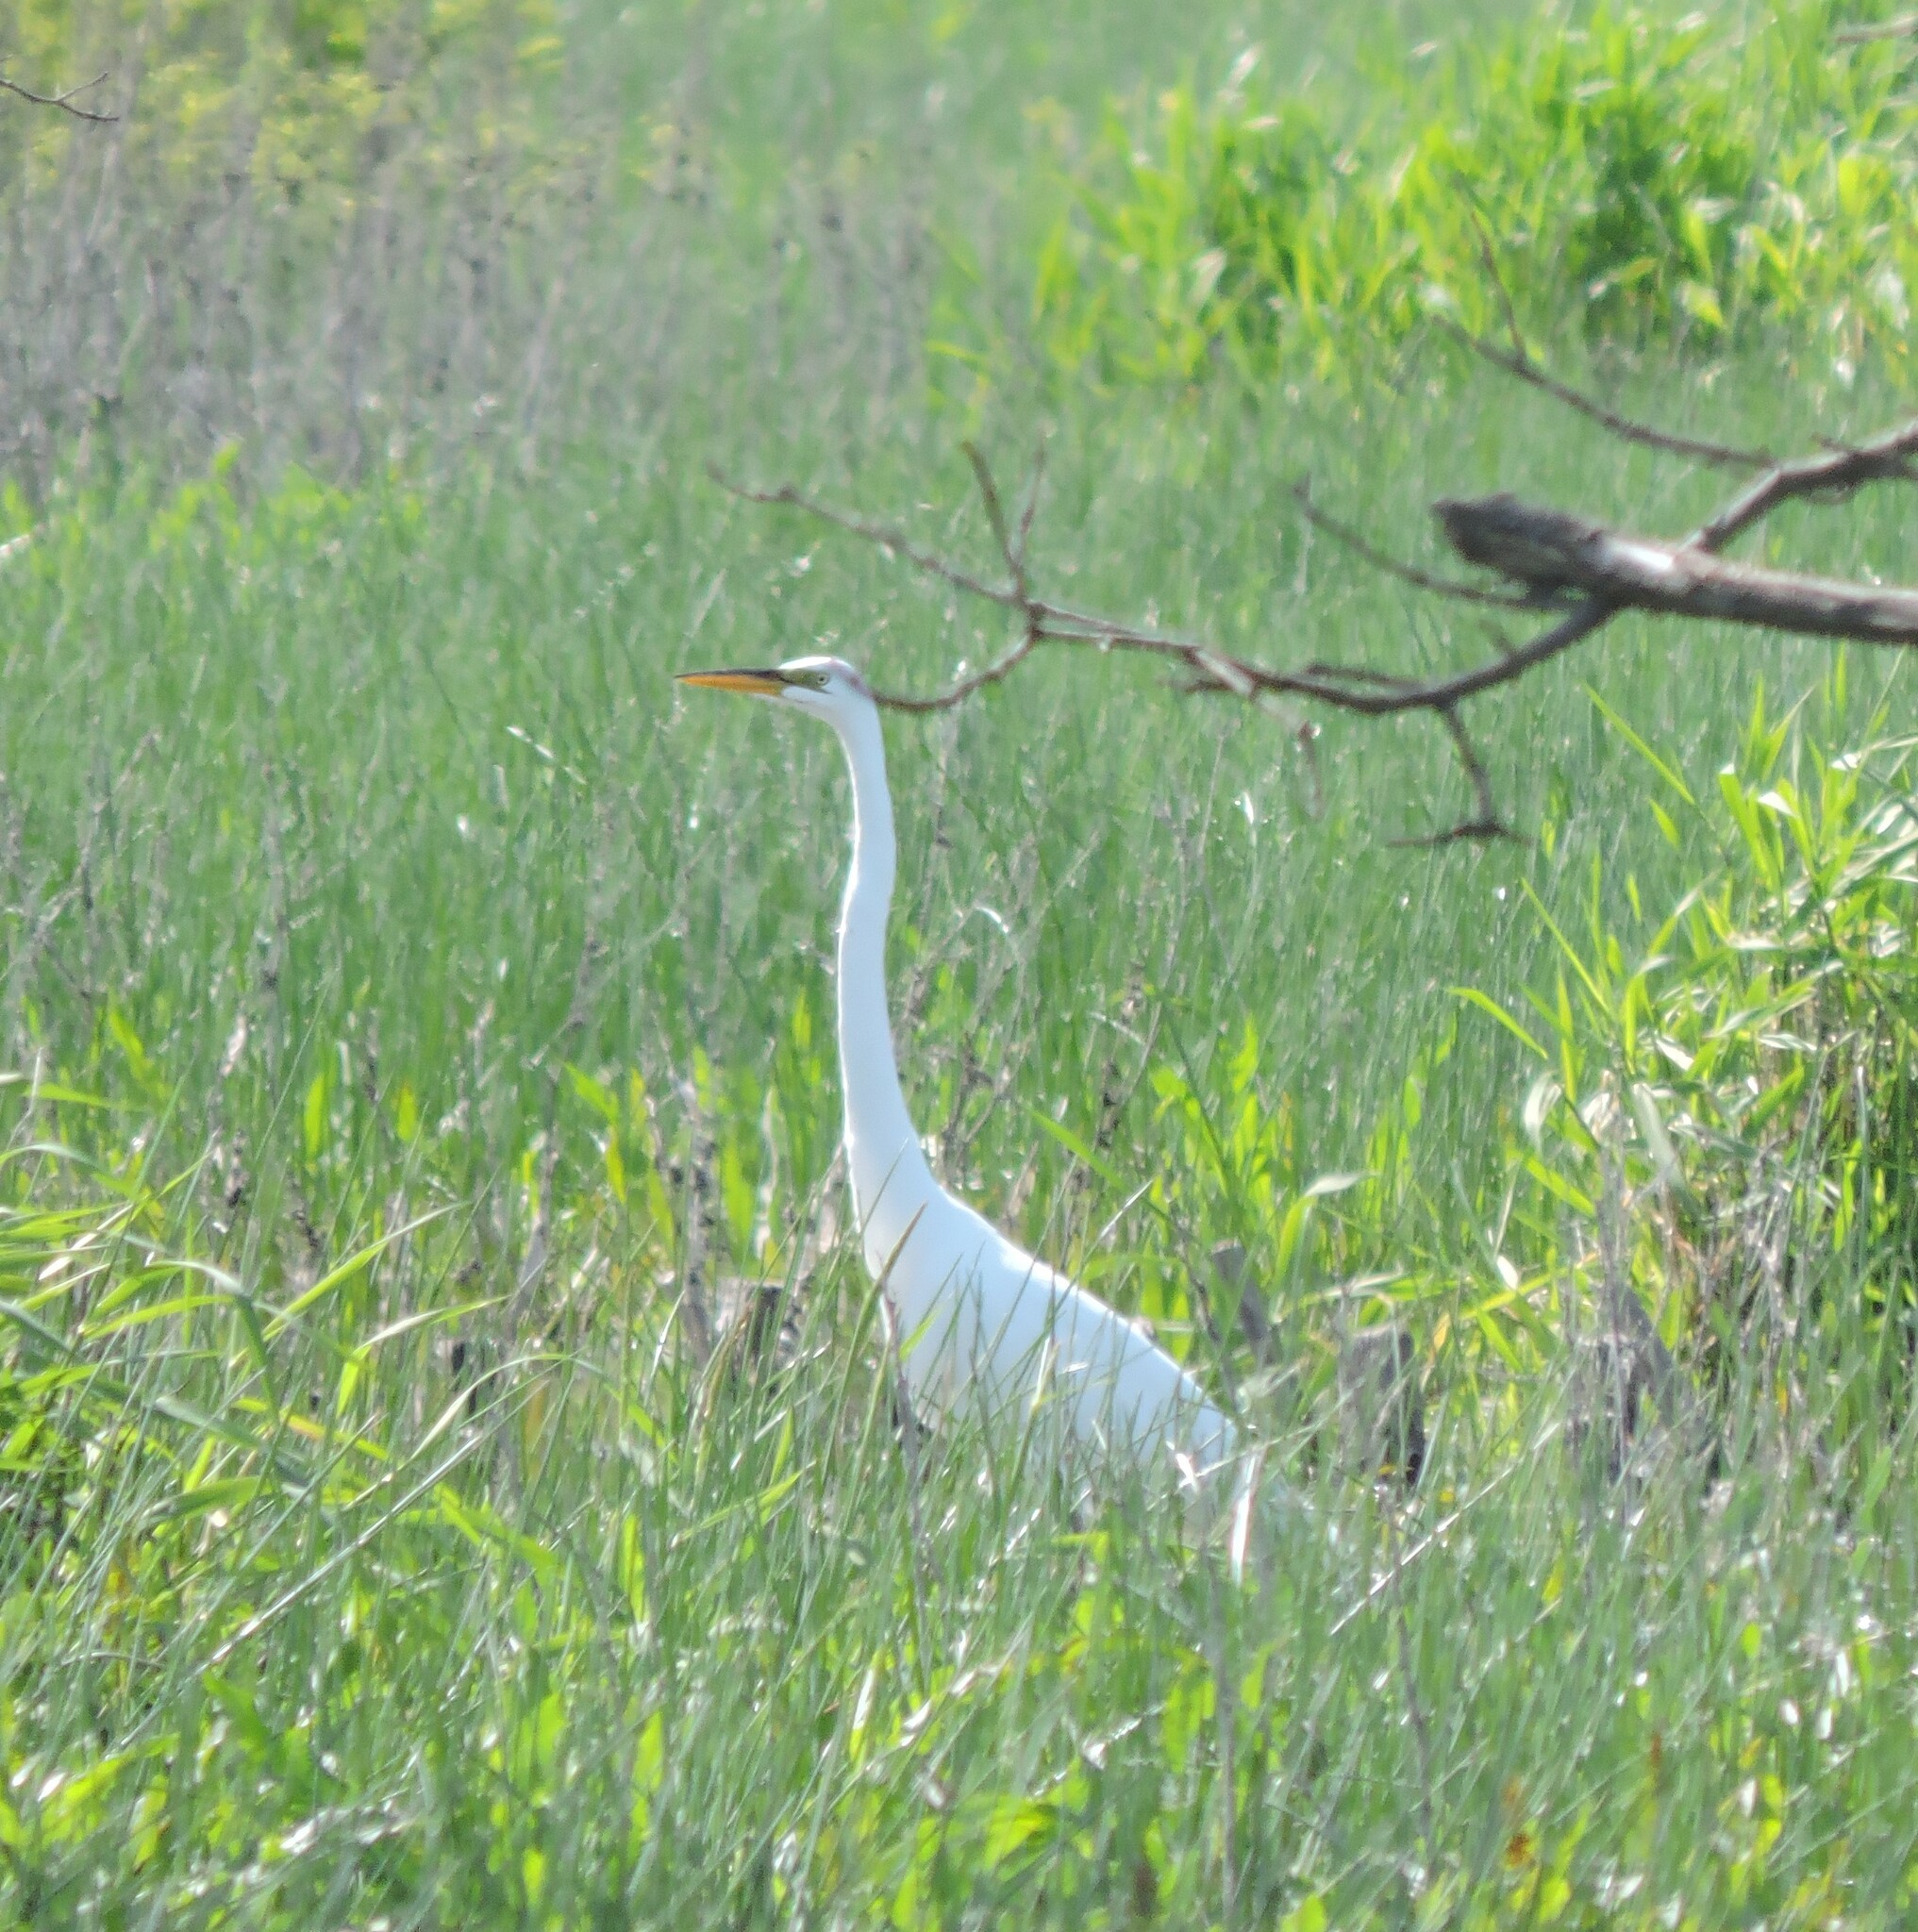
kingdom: Animalia
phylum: Chordata
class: Aves
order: Pelecaniformes
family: Ardeidae
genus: Ardea
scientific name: Ardea alba
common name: Great egret
